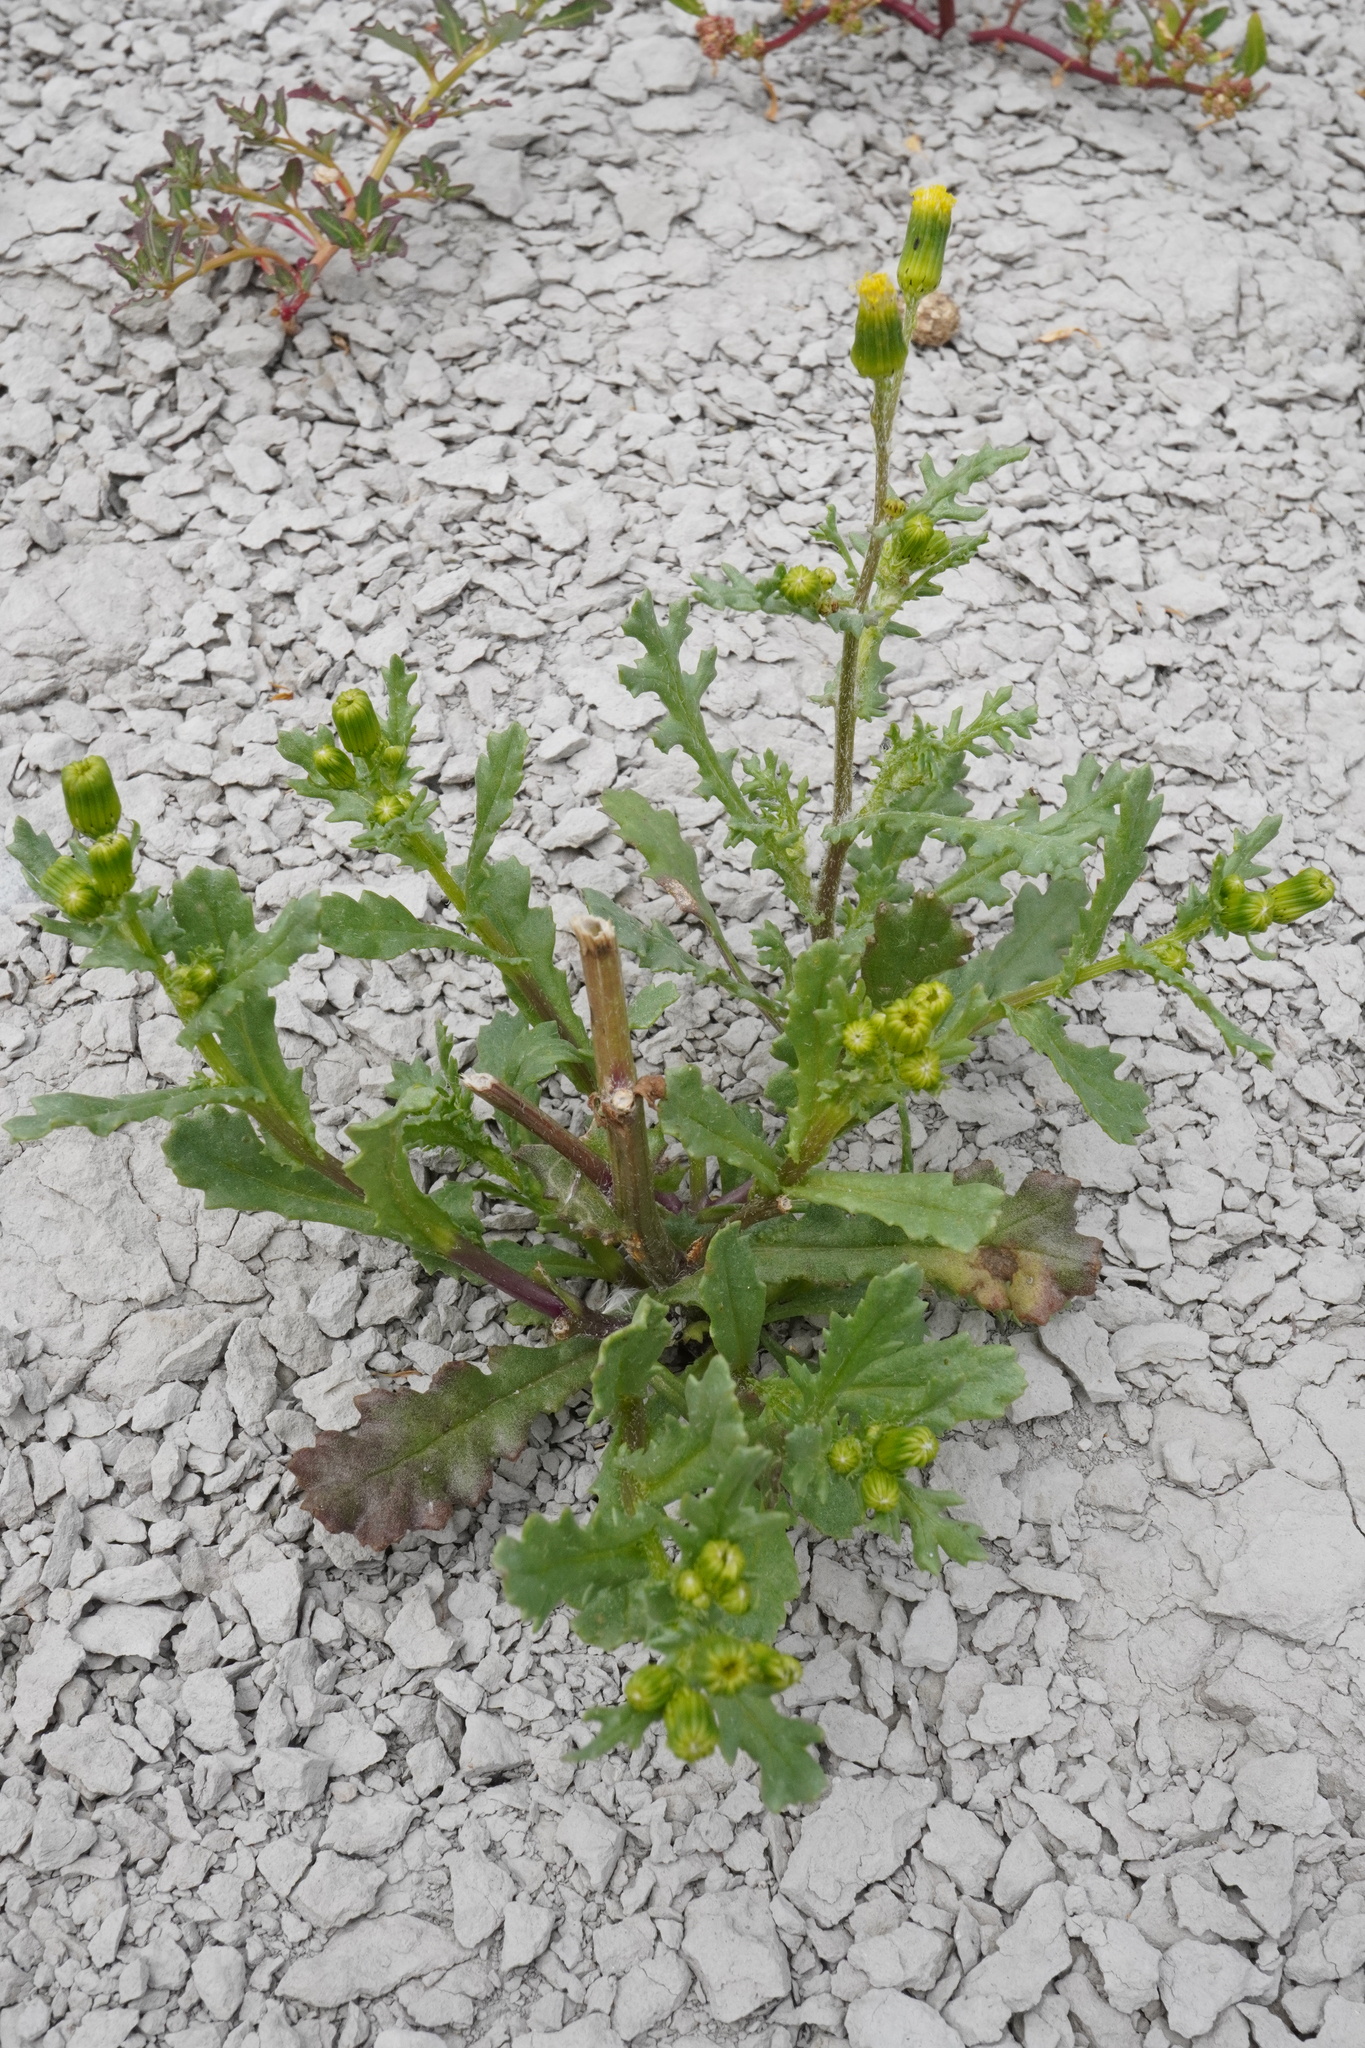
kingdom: Plantae
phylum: Tracheophyta
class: Magnoliopsida
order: Asterales
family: Asteraceae
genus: Senecio
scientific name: Senecio vulgaris
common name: Old-man-in-the-spring
